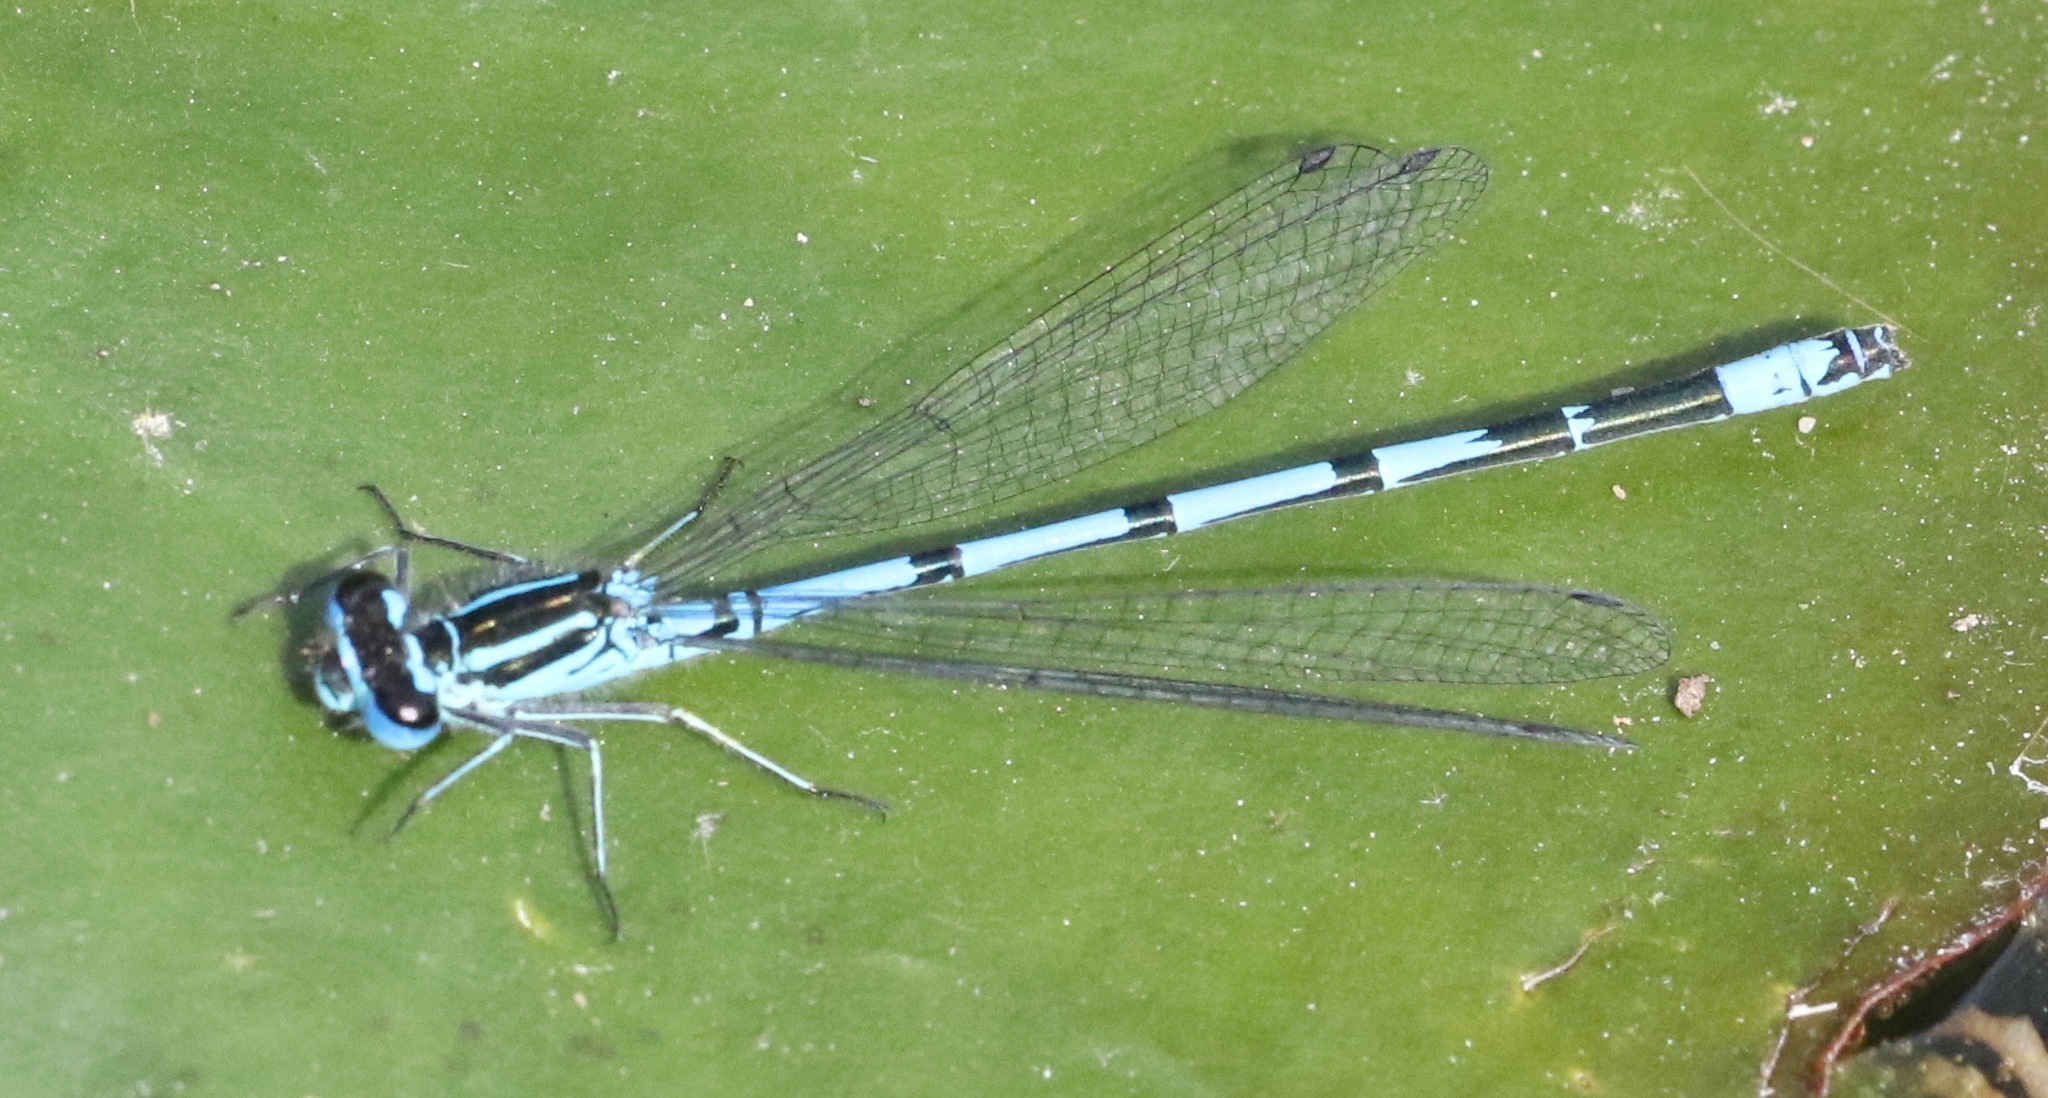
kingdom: Animalia
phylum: Arthropoda
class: Insecta
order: Odonata
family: Coenagrionidae
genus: Coenagrion
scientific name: Coenagrion puella
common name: Azure damselfly
